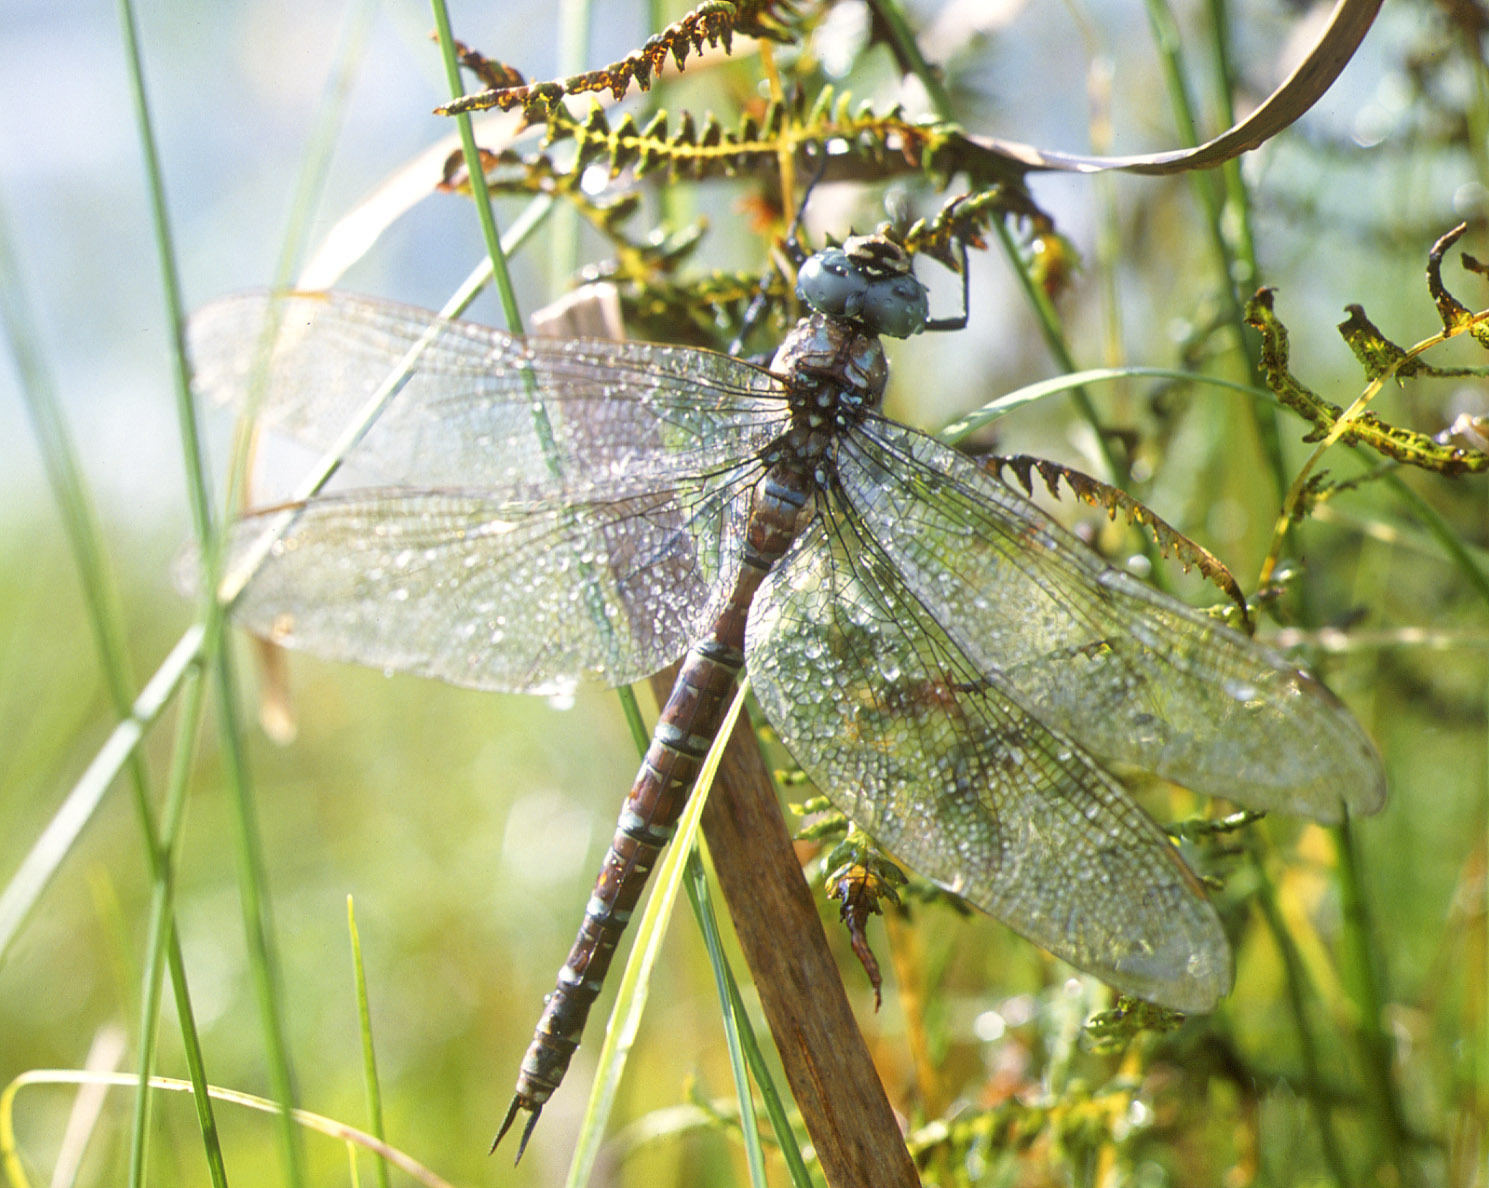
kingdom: Plantae
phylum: Tracheophyta
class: Polypodiopsida
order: Polypodiales
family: Thelypteridaceae
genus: Thelypteris
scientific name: Thelypteris palustris
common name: Marsh fern
